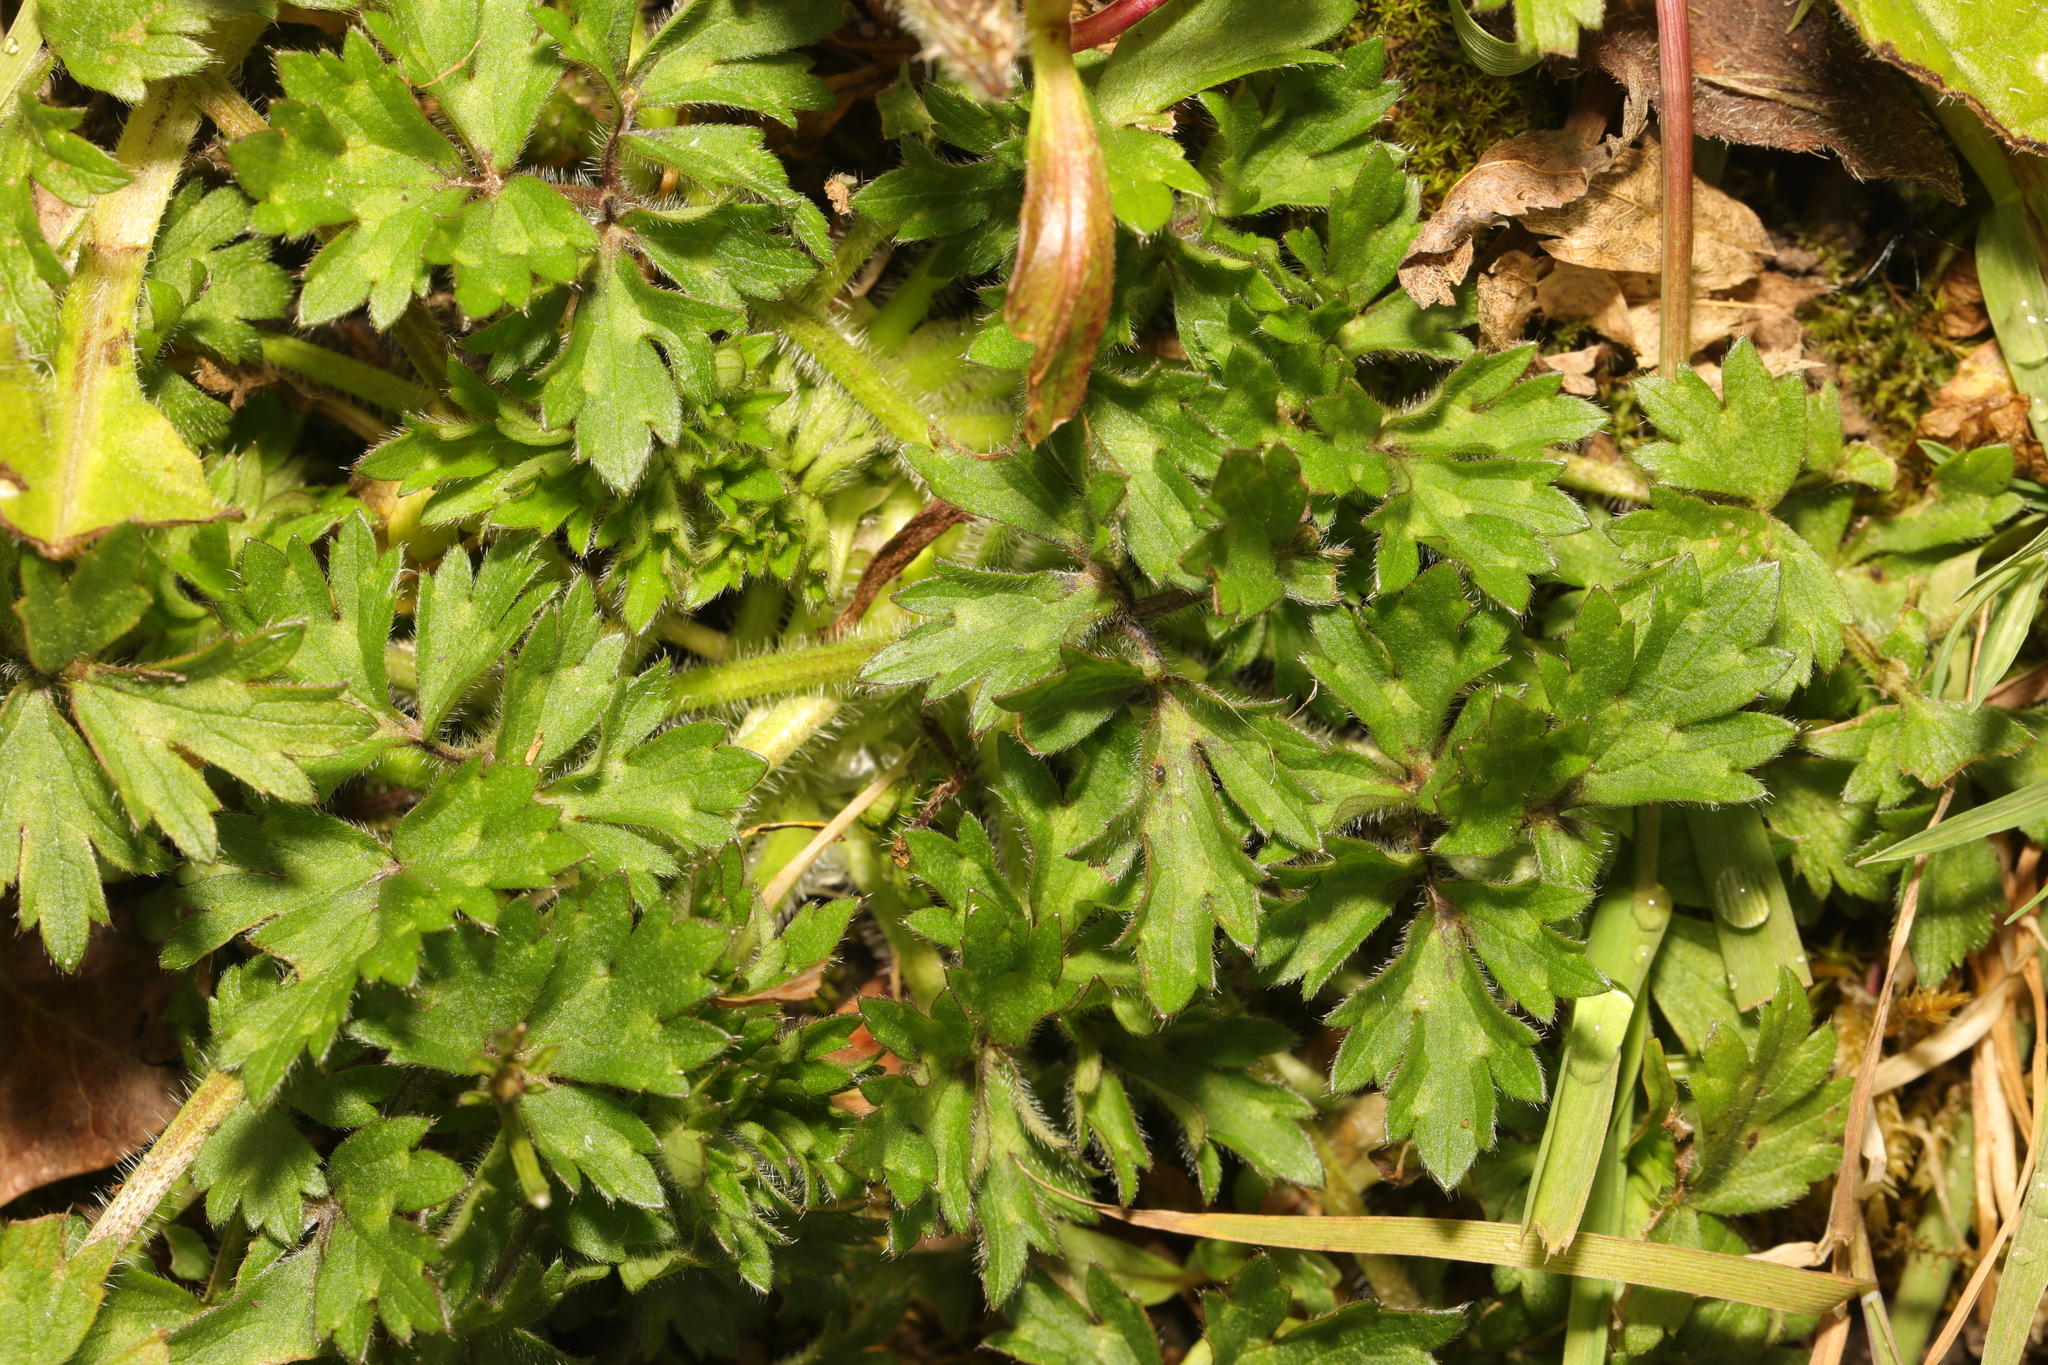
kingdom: Plantae
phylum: Tracheophyta
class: Magnoliopsida
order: Ranunculales
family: Ranunculaceae
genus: Ranunculus
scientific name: Ranunculus repens
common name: Creeping buttercup
